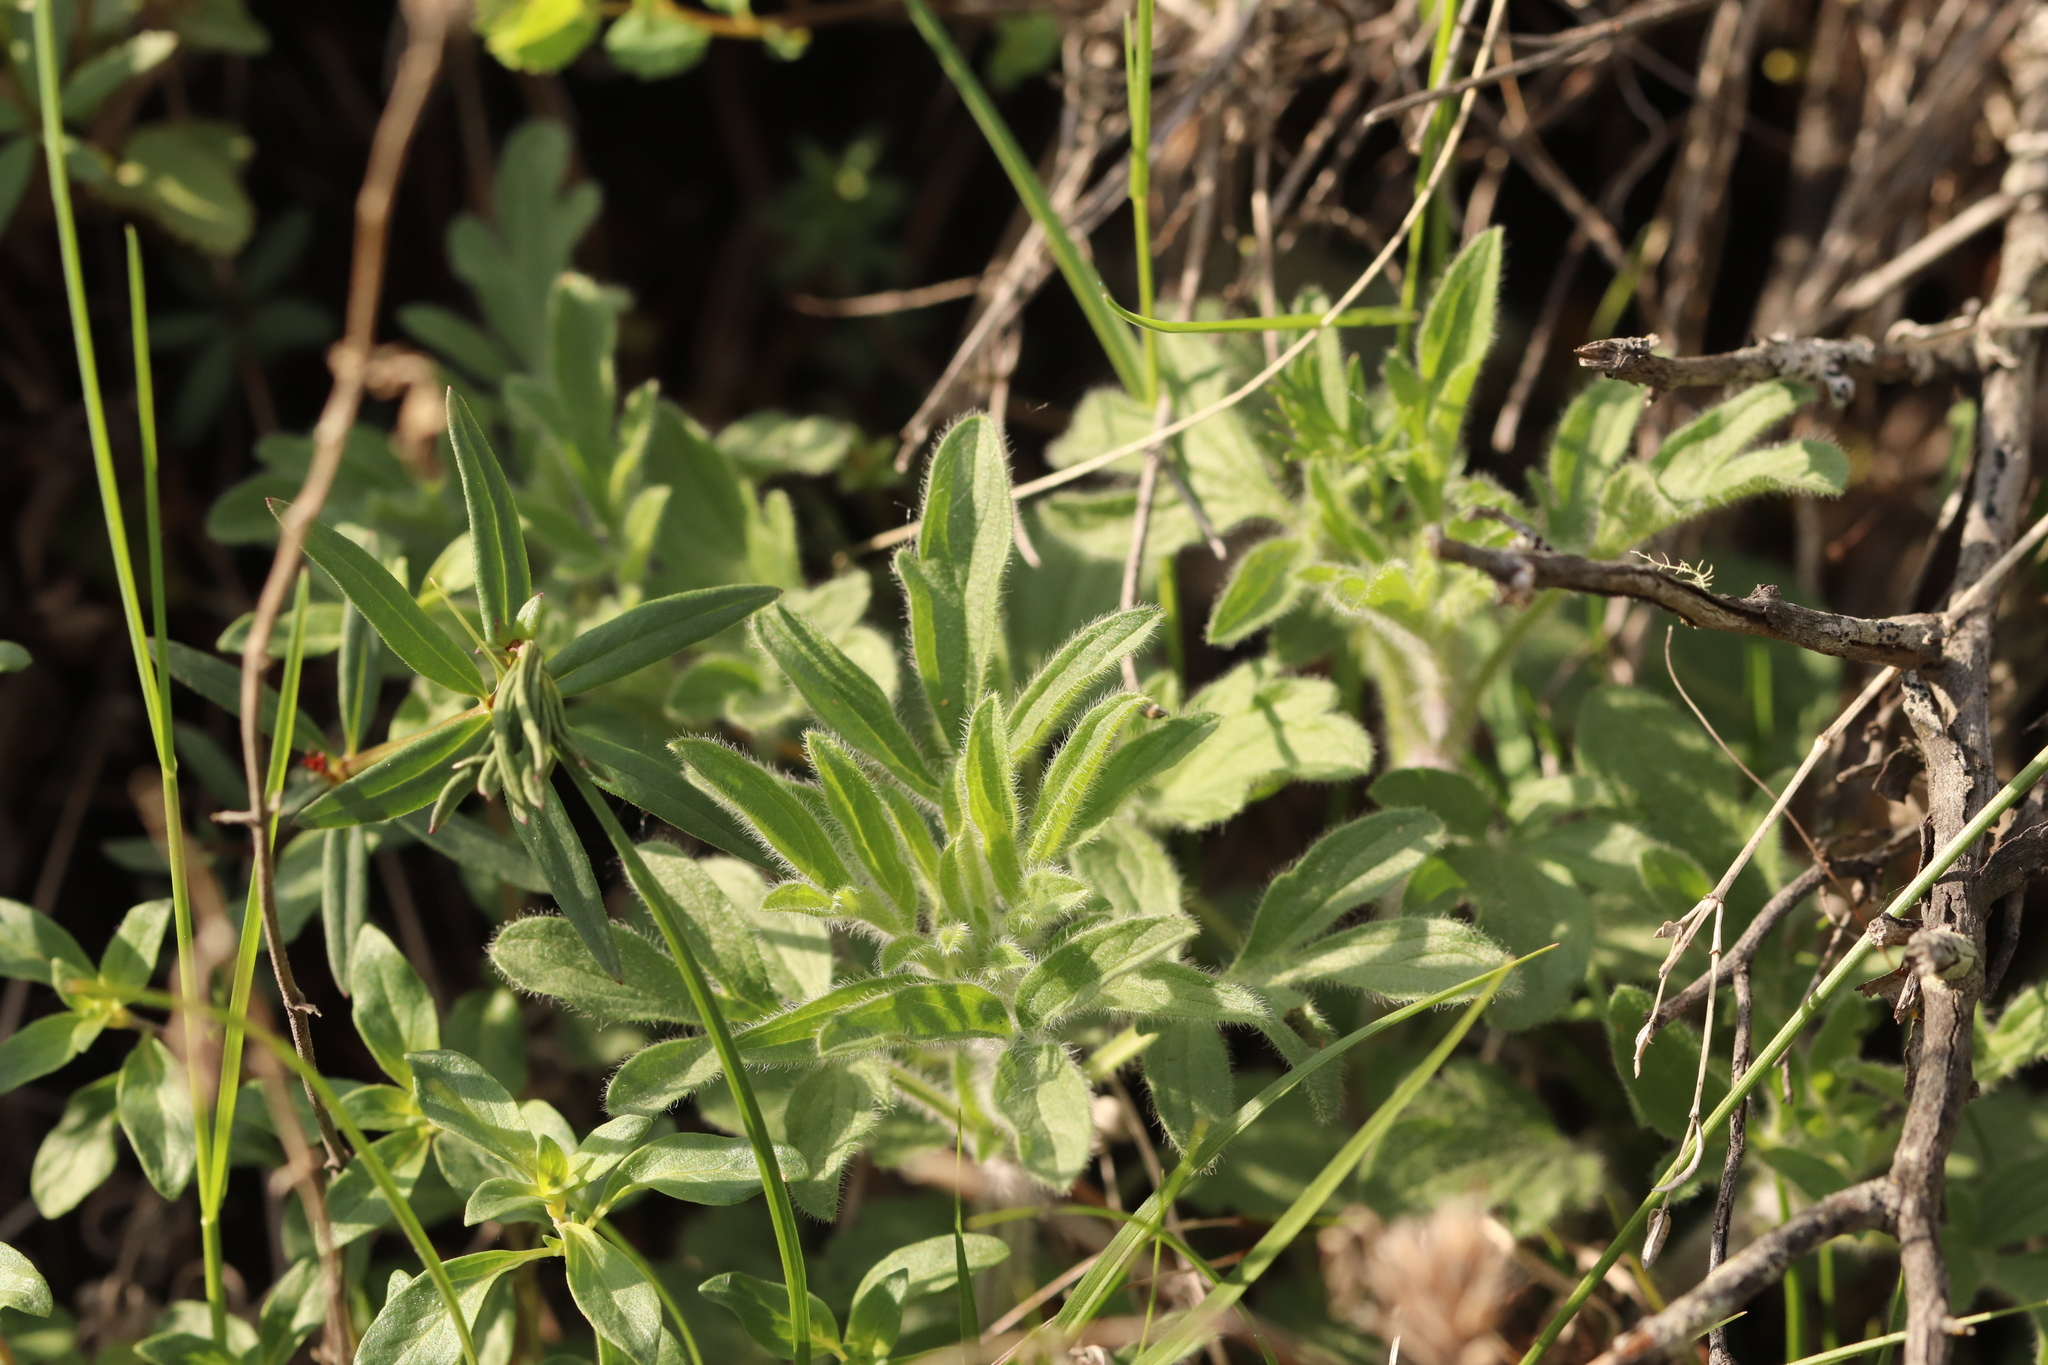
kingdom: Plantae
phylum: Tracheophyta
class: Magnoliopsida
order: Lamiales
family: Lamiaceae
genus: Nepeta
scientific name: Nepeta multifida
